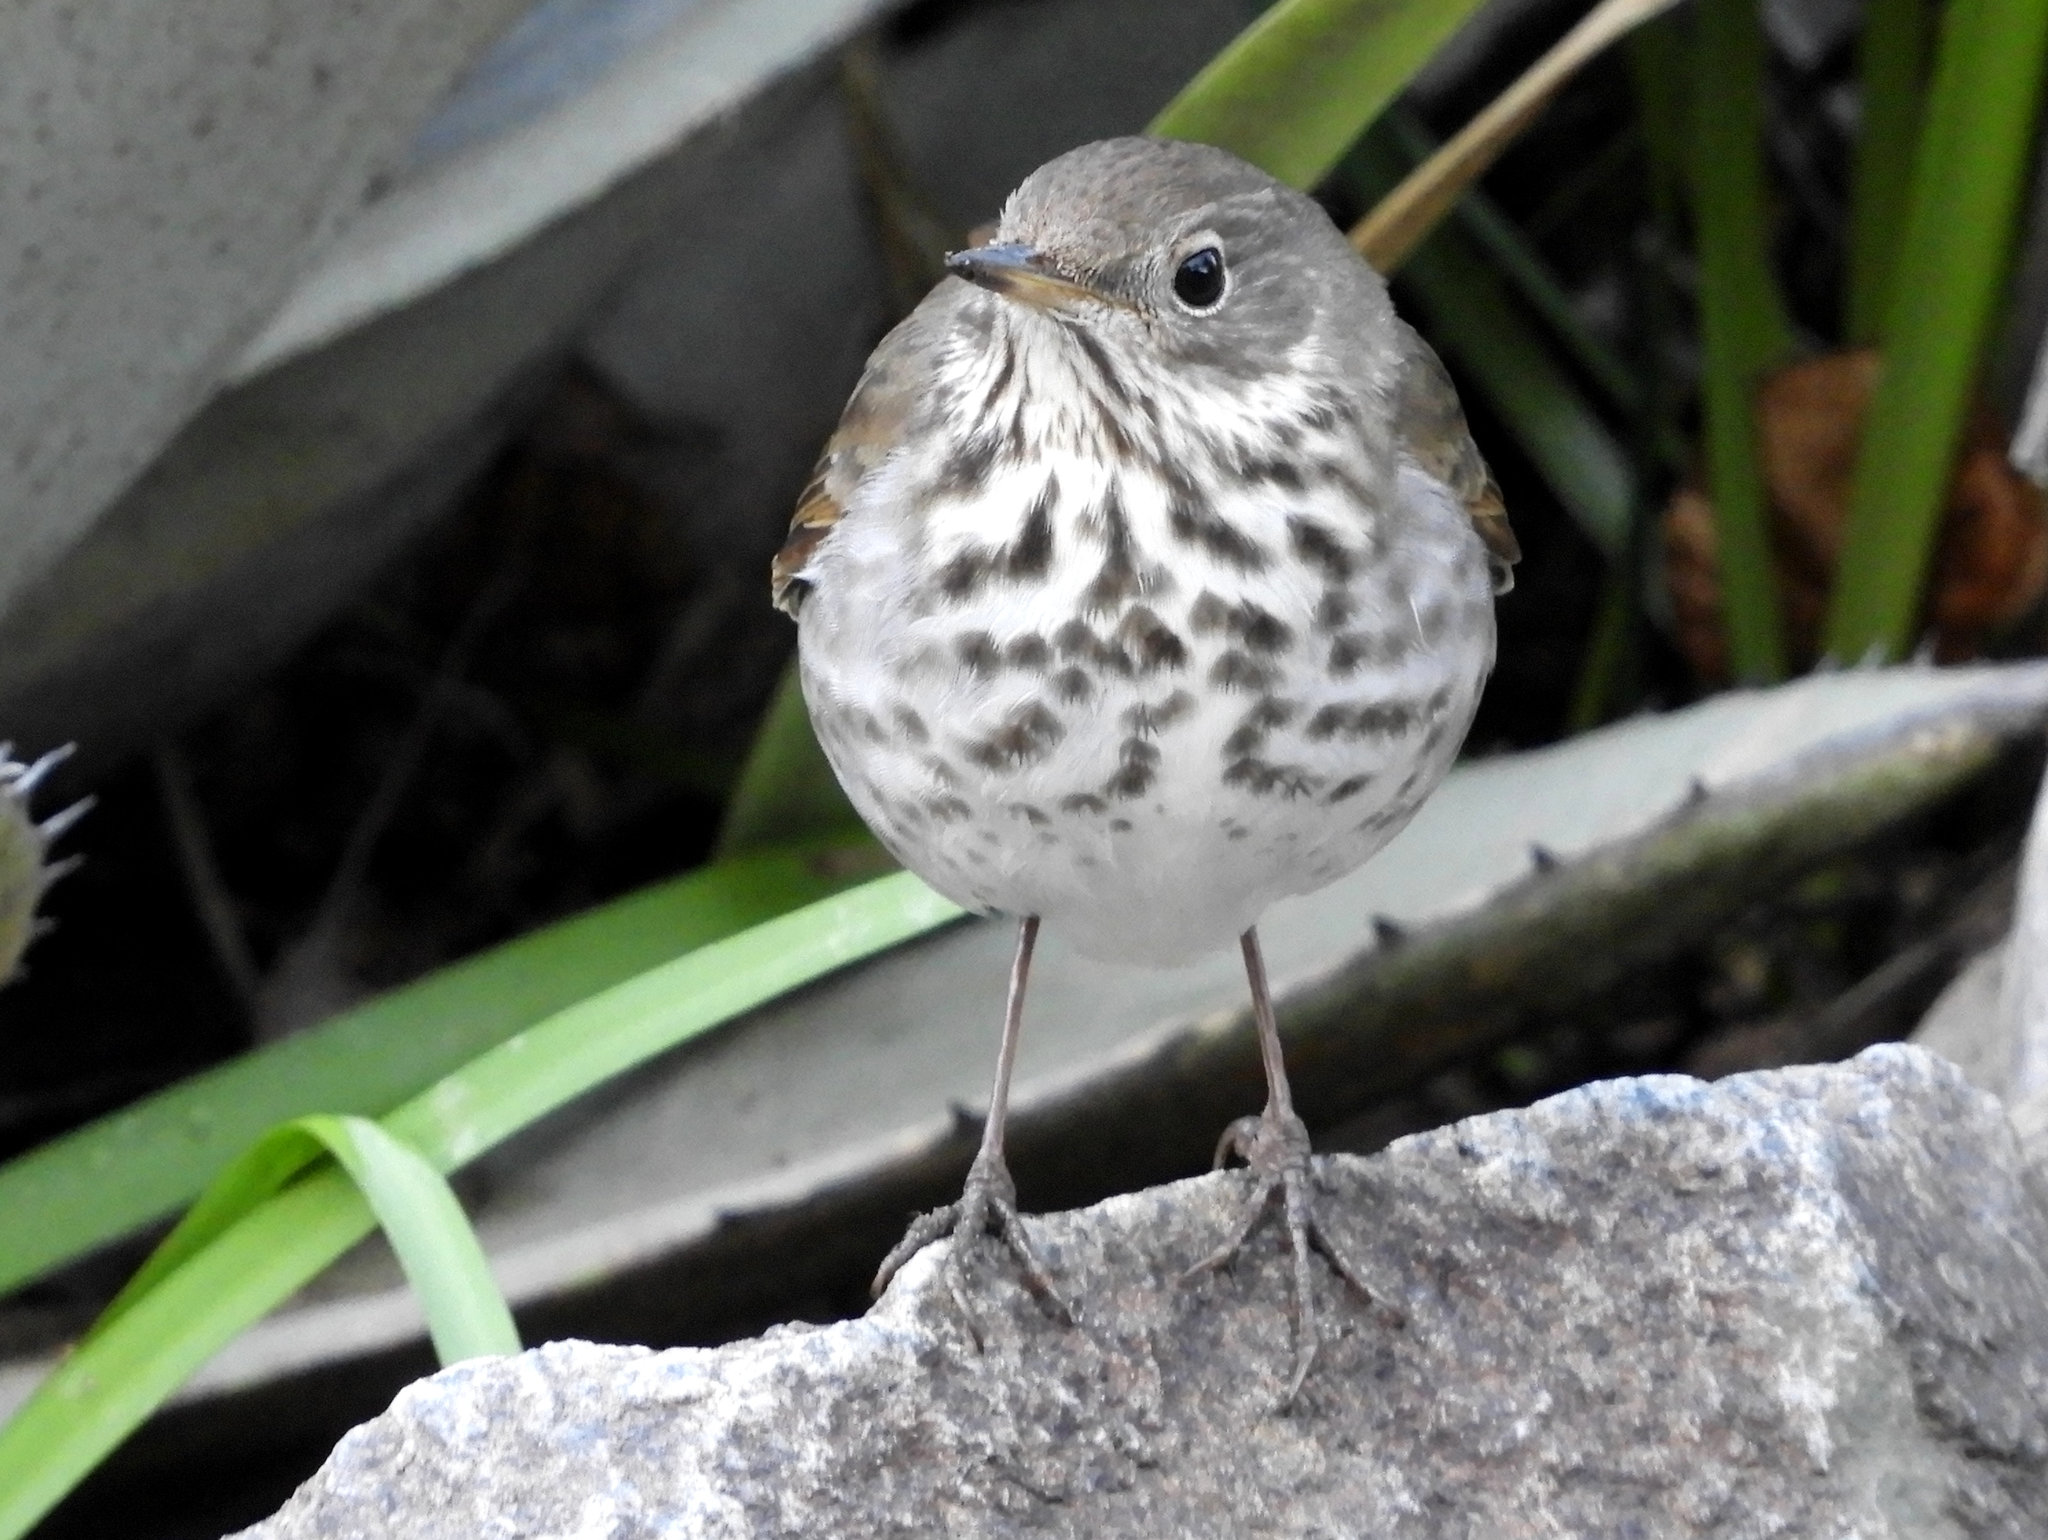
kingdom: Animalia
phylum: Chordata
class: Aves
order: Passeriformes
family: Turdidae
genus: Catharus
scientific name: Catharus guttatus
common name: Hermit thrush
